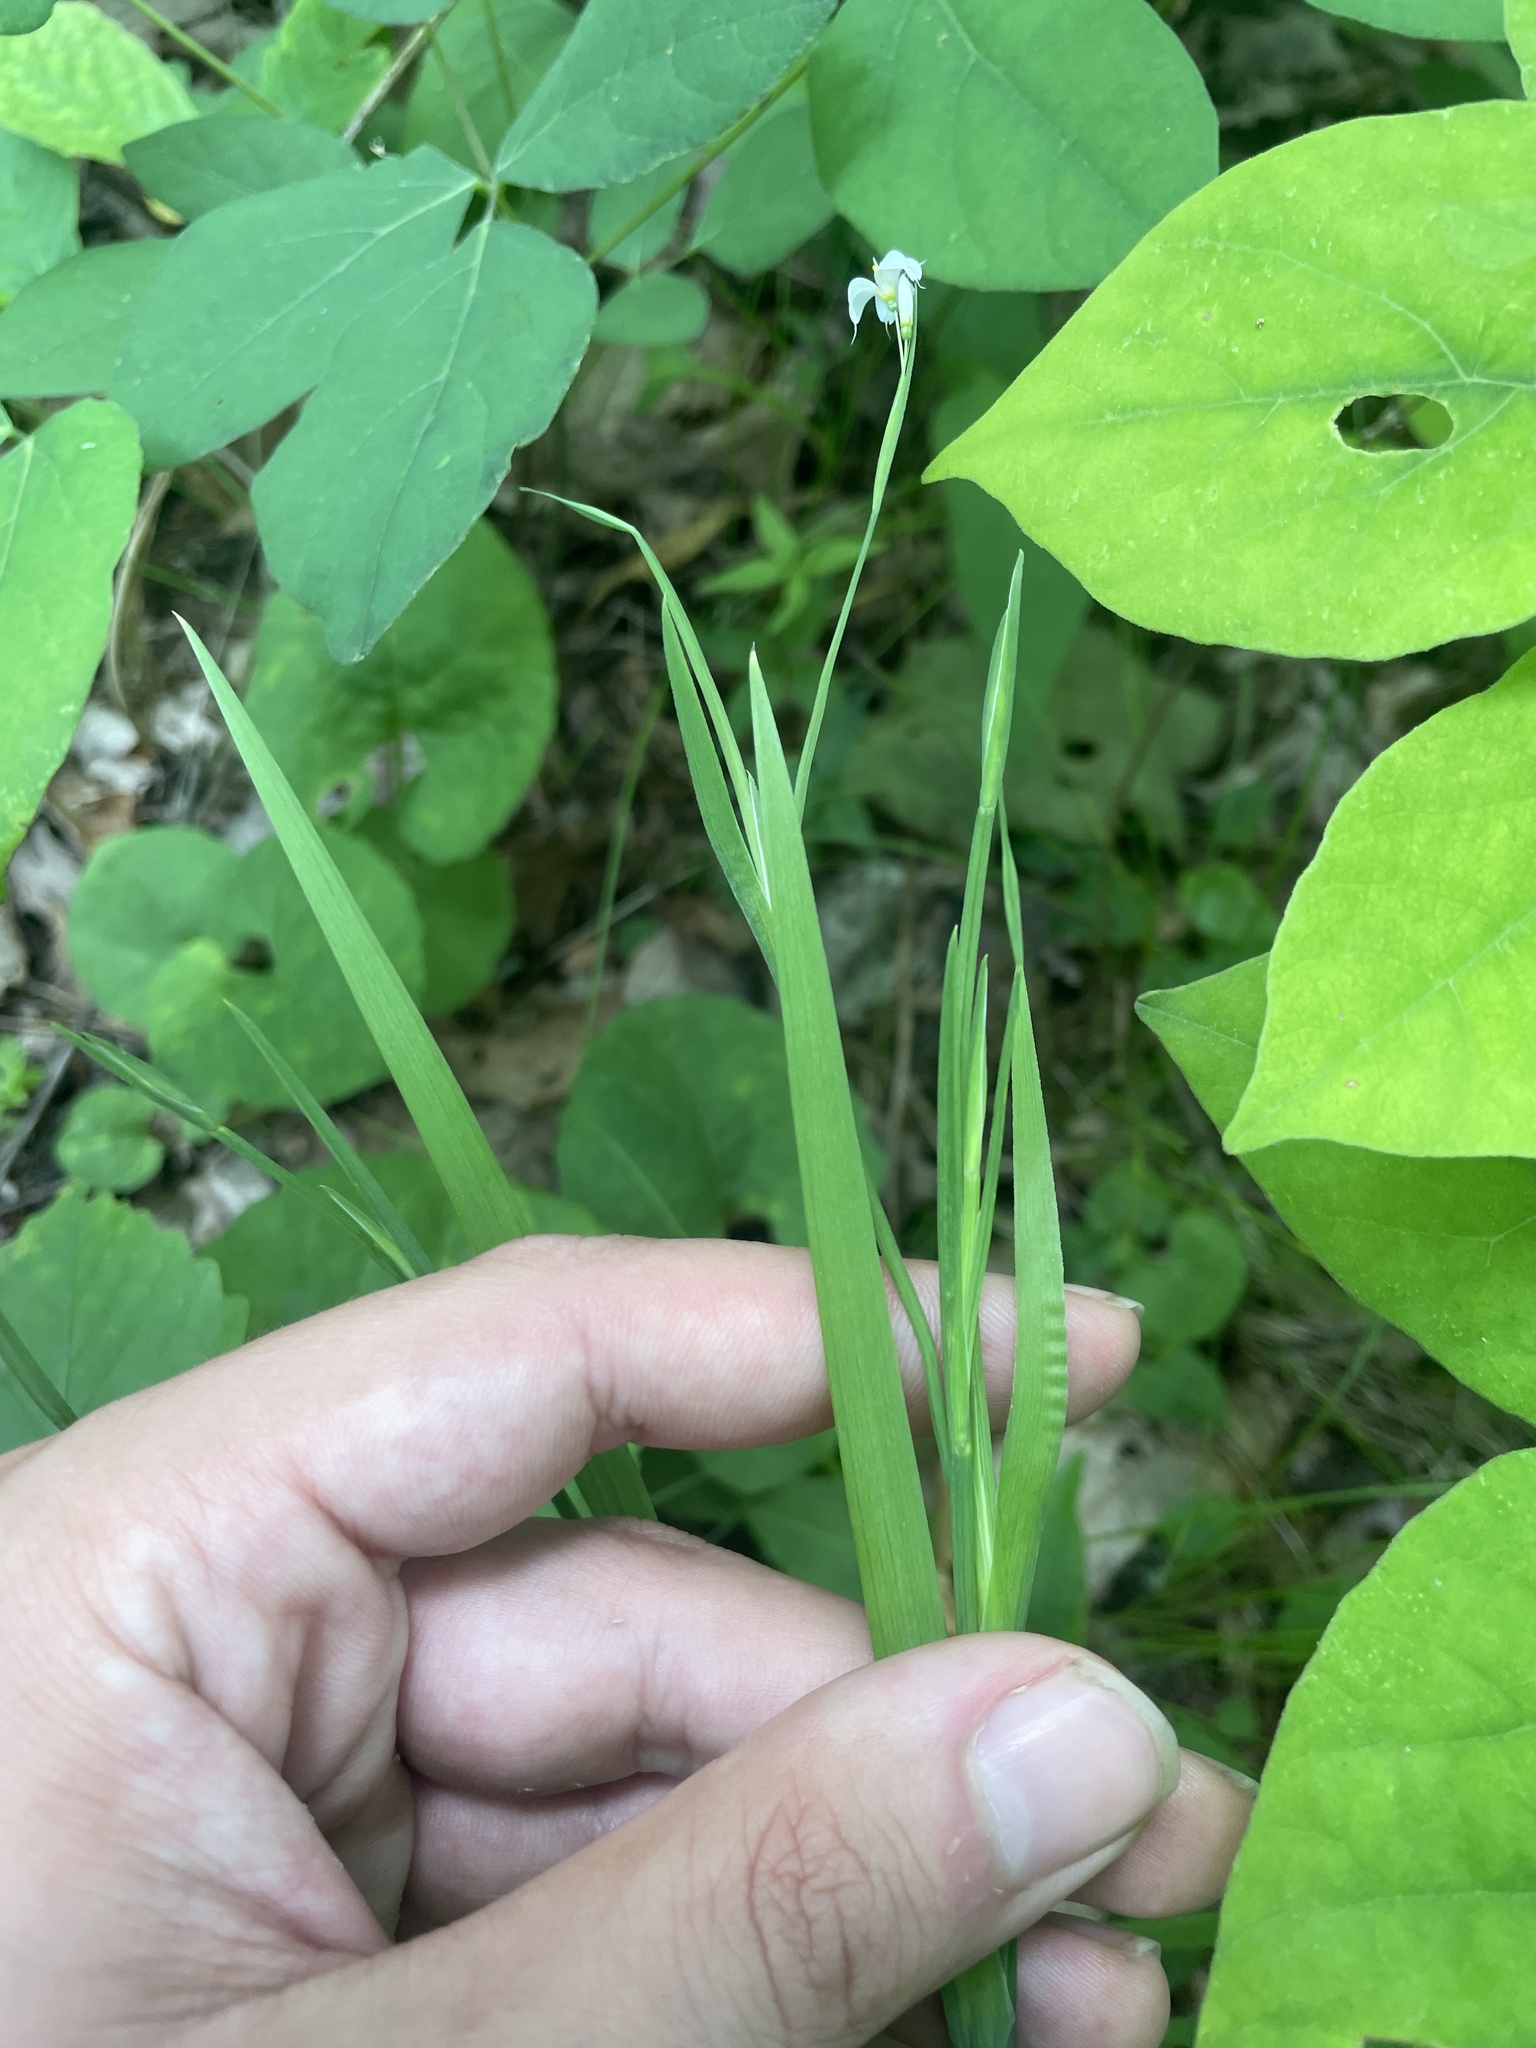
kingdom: Plantae
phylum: Tracheophyta
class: Liliopsida
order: Asparagales
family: Iridaceae
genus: Sisyrinchium
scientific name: Sisyrinchium dichotomum
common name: White irisette
